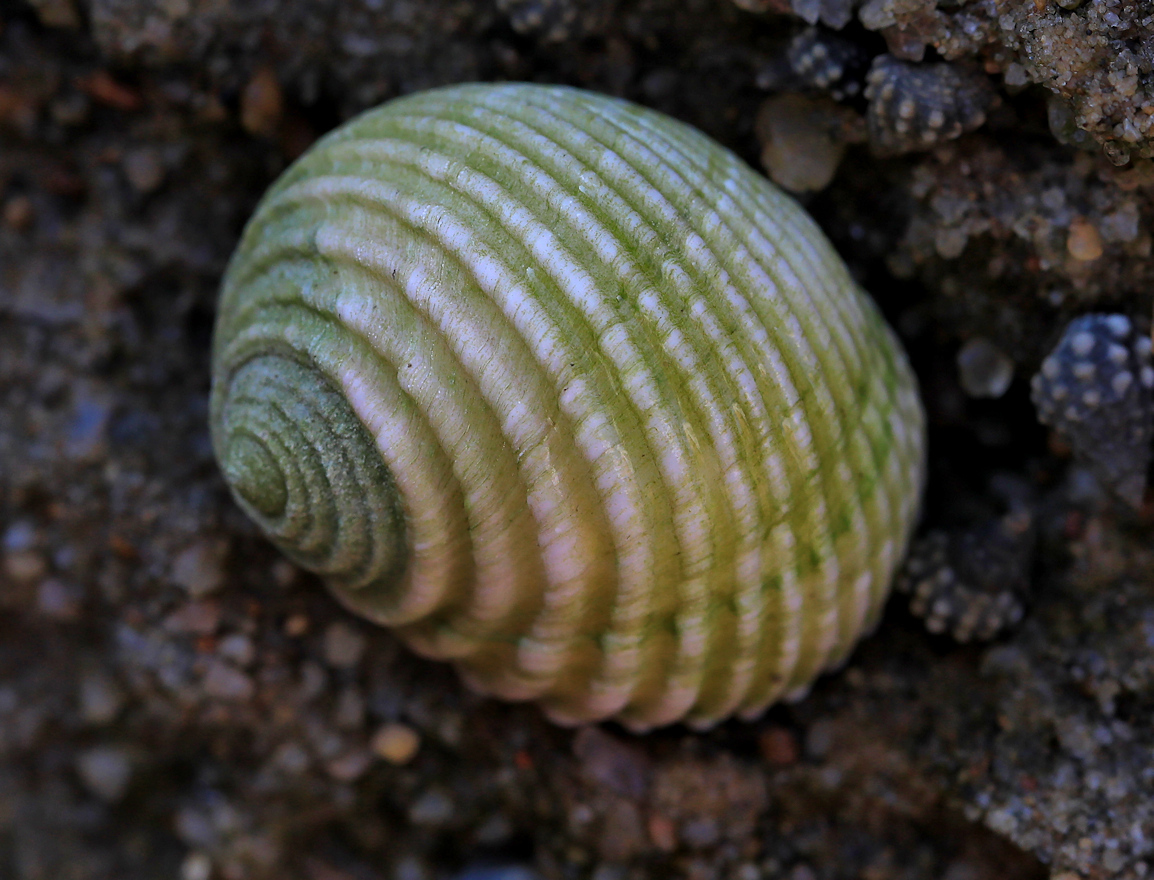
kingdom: Animalia
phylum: Mollusca
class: Gastropoda
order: Cycloneritida
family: Neritidae
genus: Nerita
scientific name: Nerita plicata
